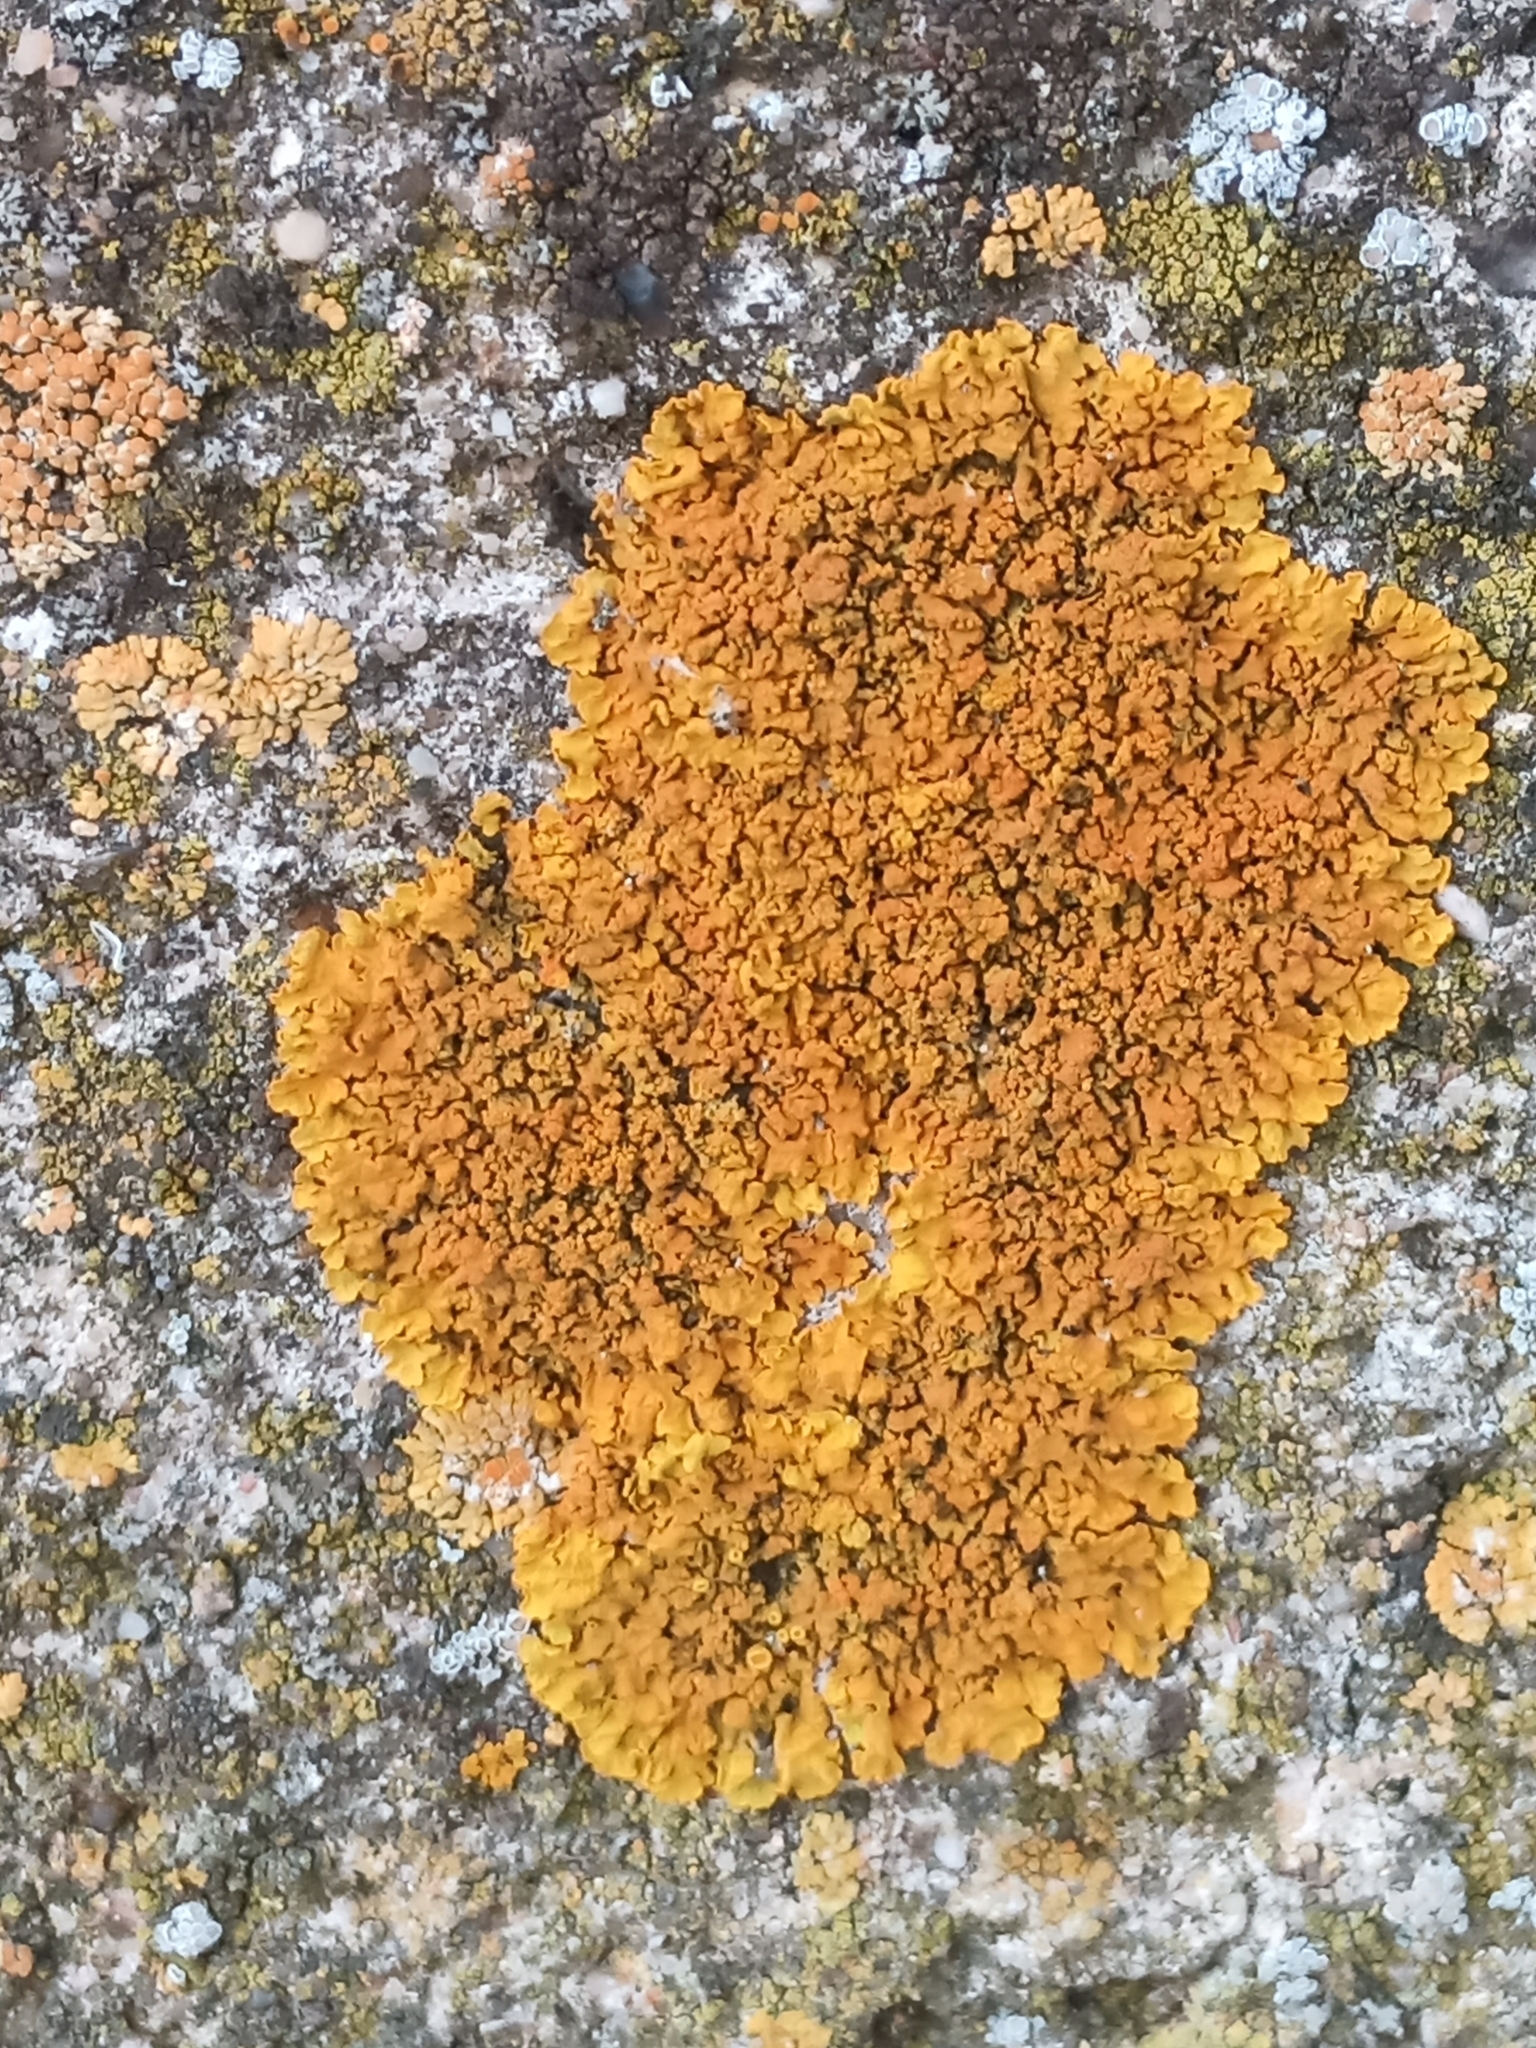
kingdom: Fungi
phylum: Ascomycota
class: Lecanoromycetes
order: Teloschistales
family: Teloschistaceae
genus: Xanthoria
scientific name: Xanthoria calcicola
